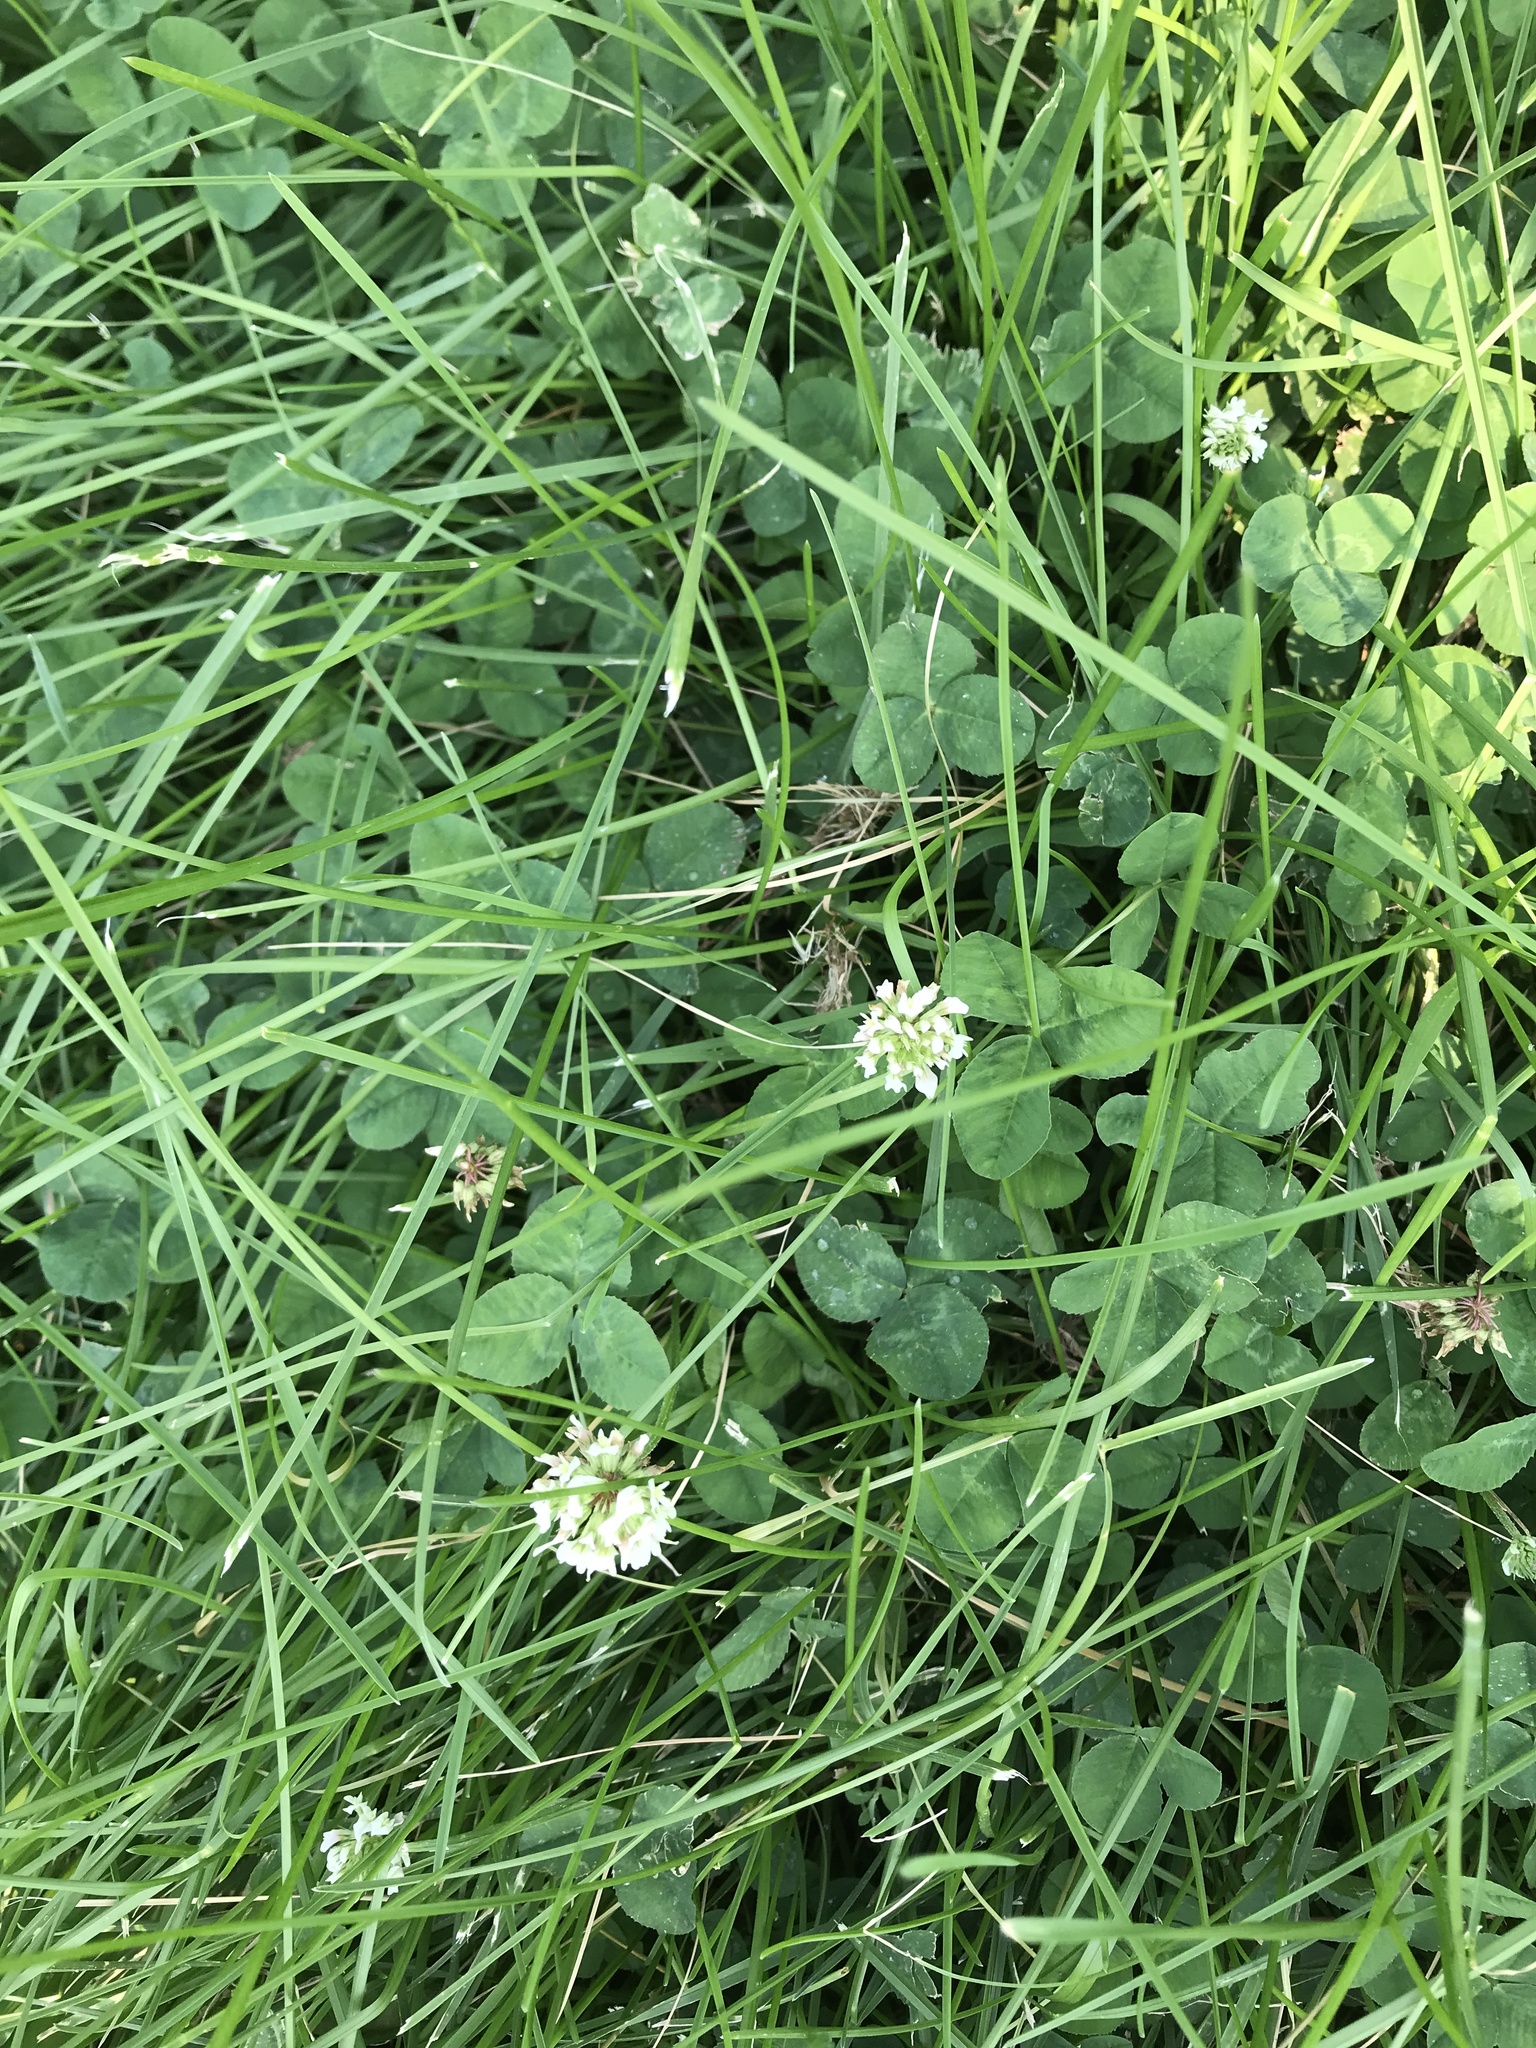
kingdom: Plantae
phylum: Tracheophyta
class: Magnoliopsida
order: Fabales
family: Fabaceae
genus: Trifolium
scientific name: Trifolium repens
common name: White clover
